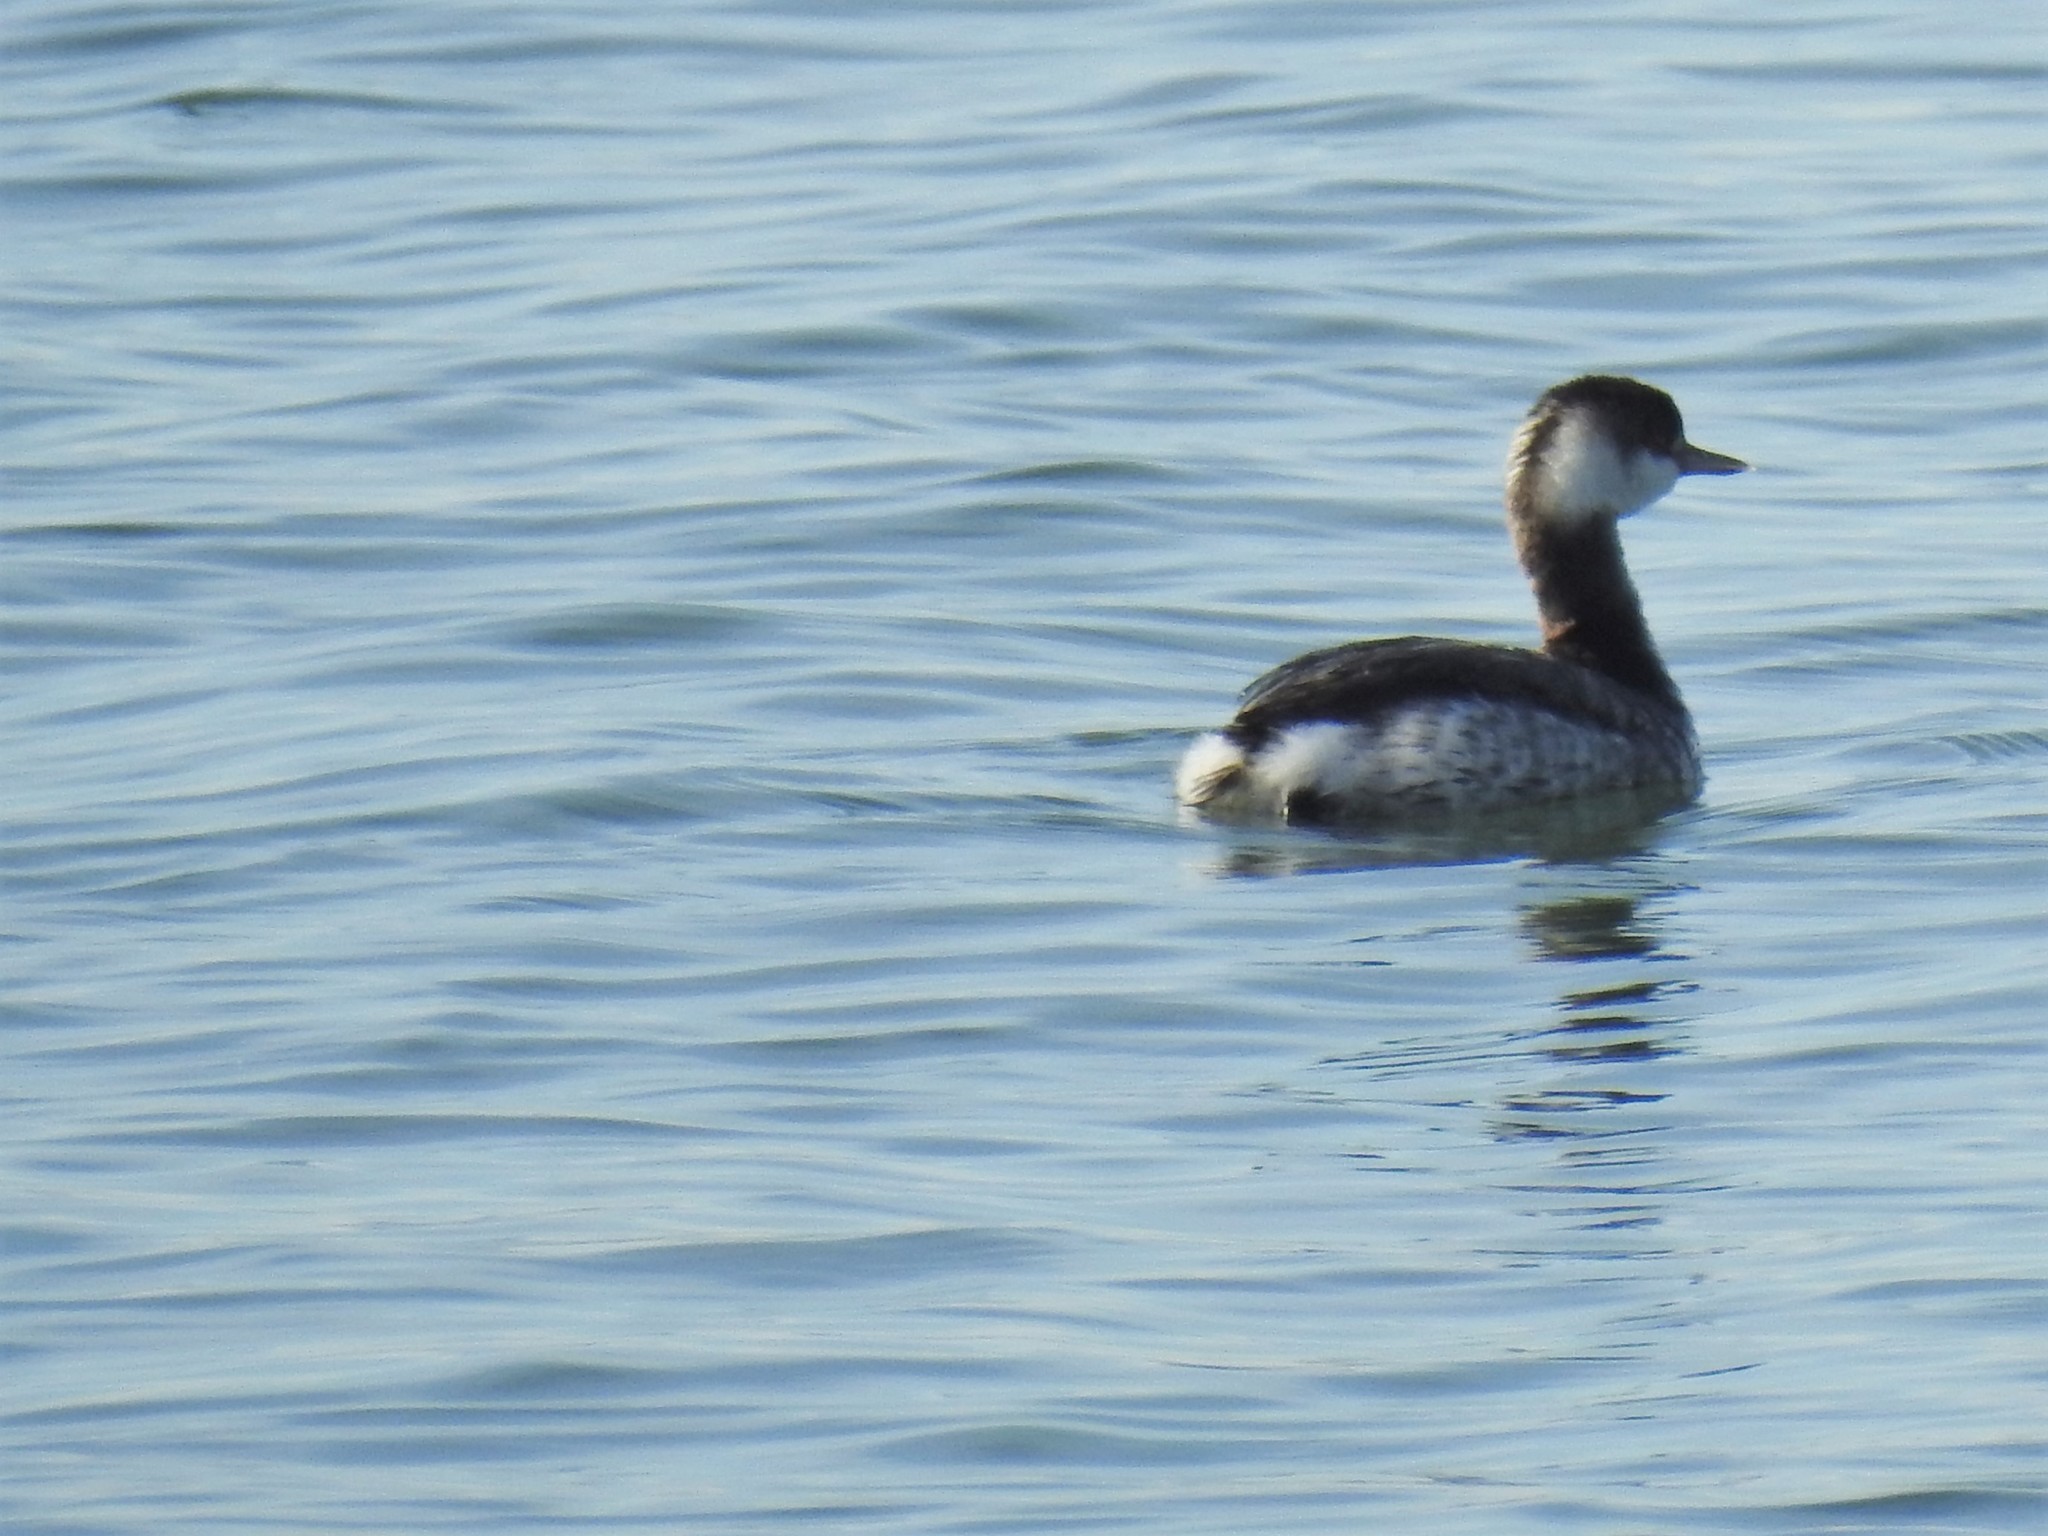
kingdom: Animalia
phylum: Chordata
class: Aves
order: Podicipediformes
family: Podicipedidae
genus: Podiceps
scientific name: Podiceps auritus
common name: Horned grebe
